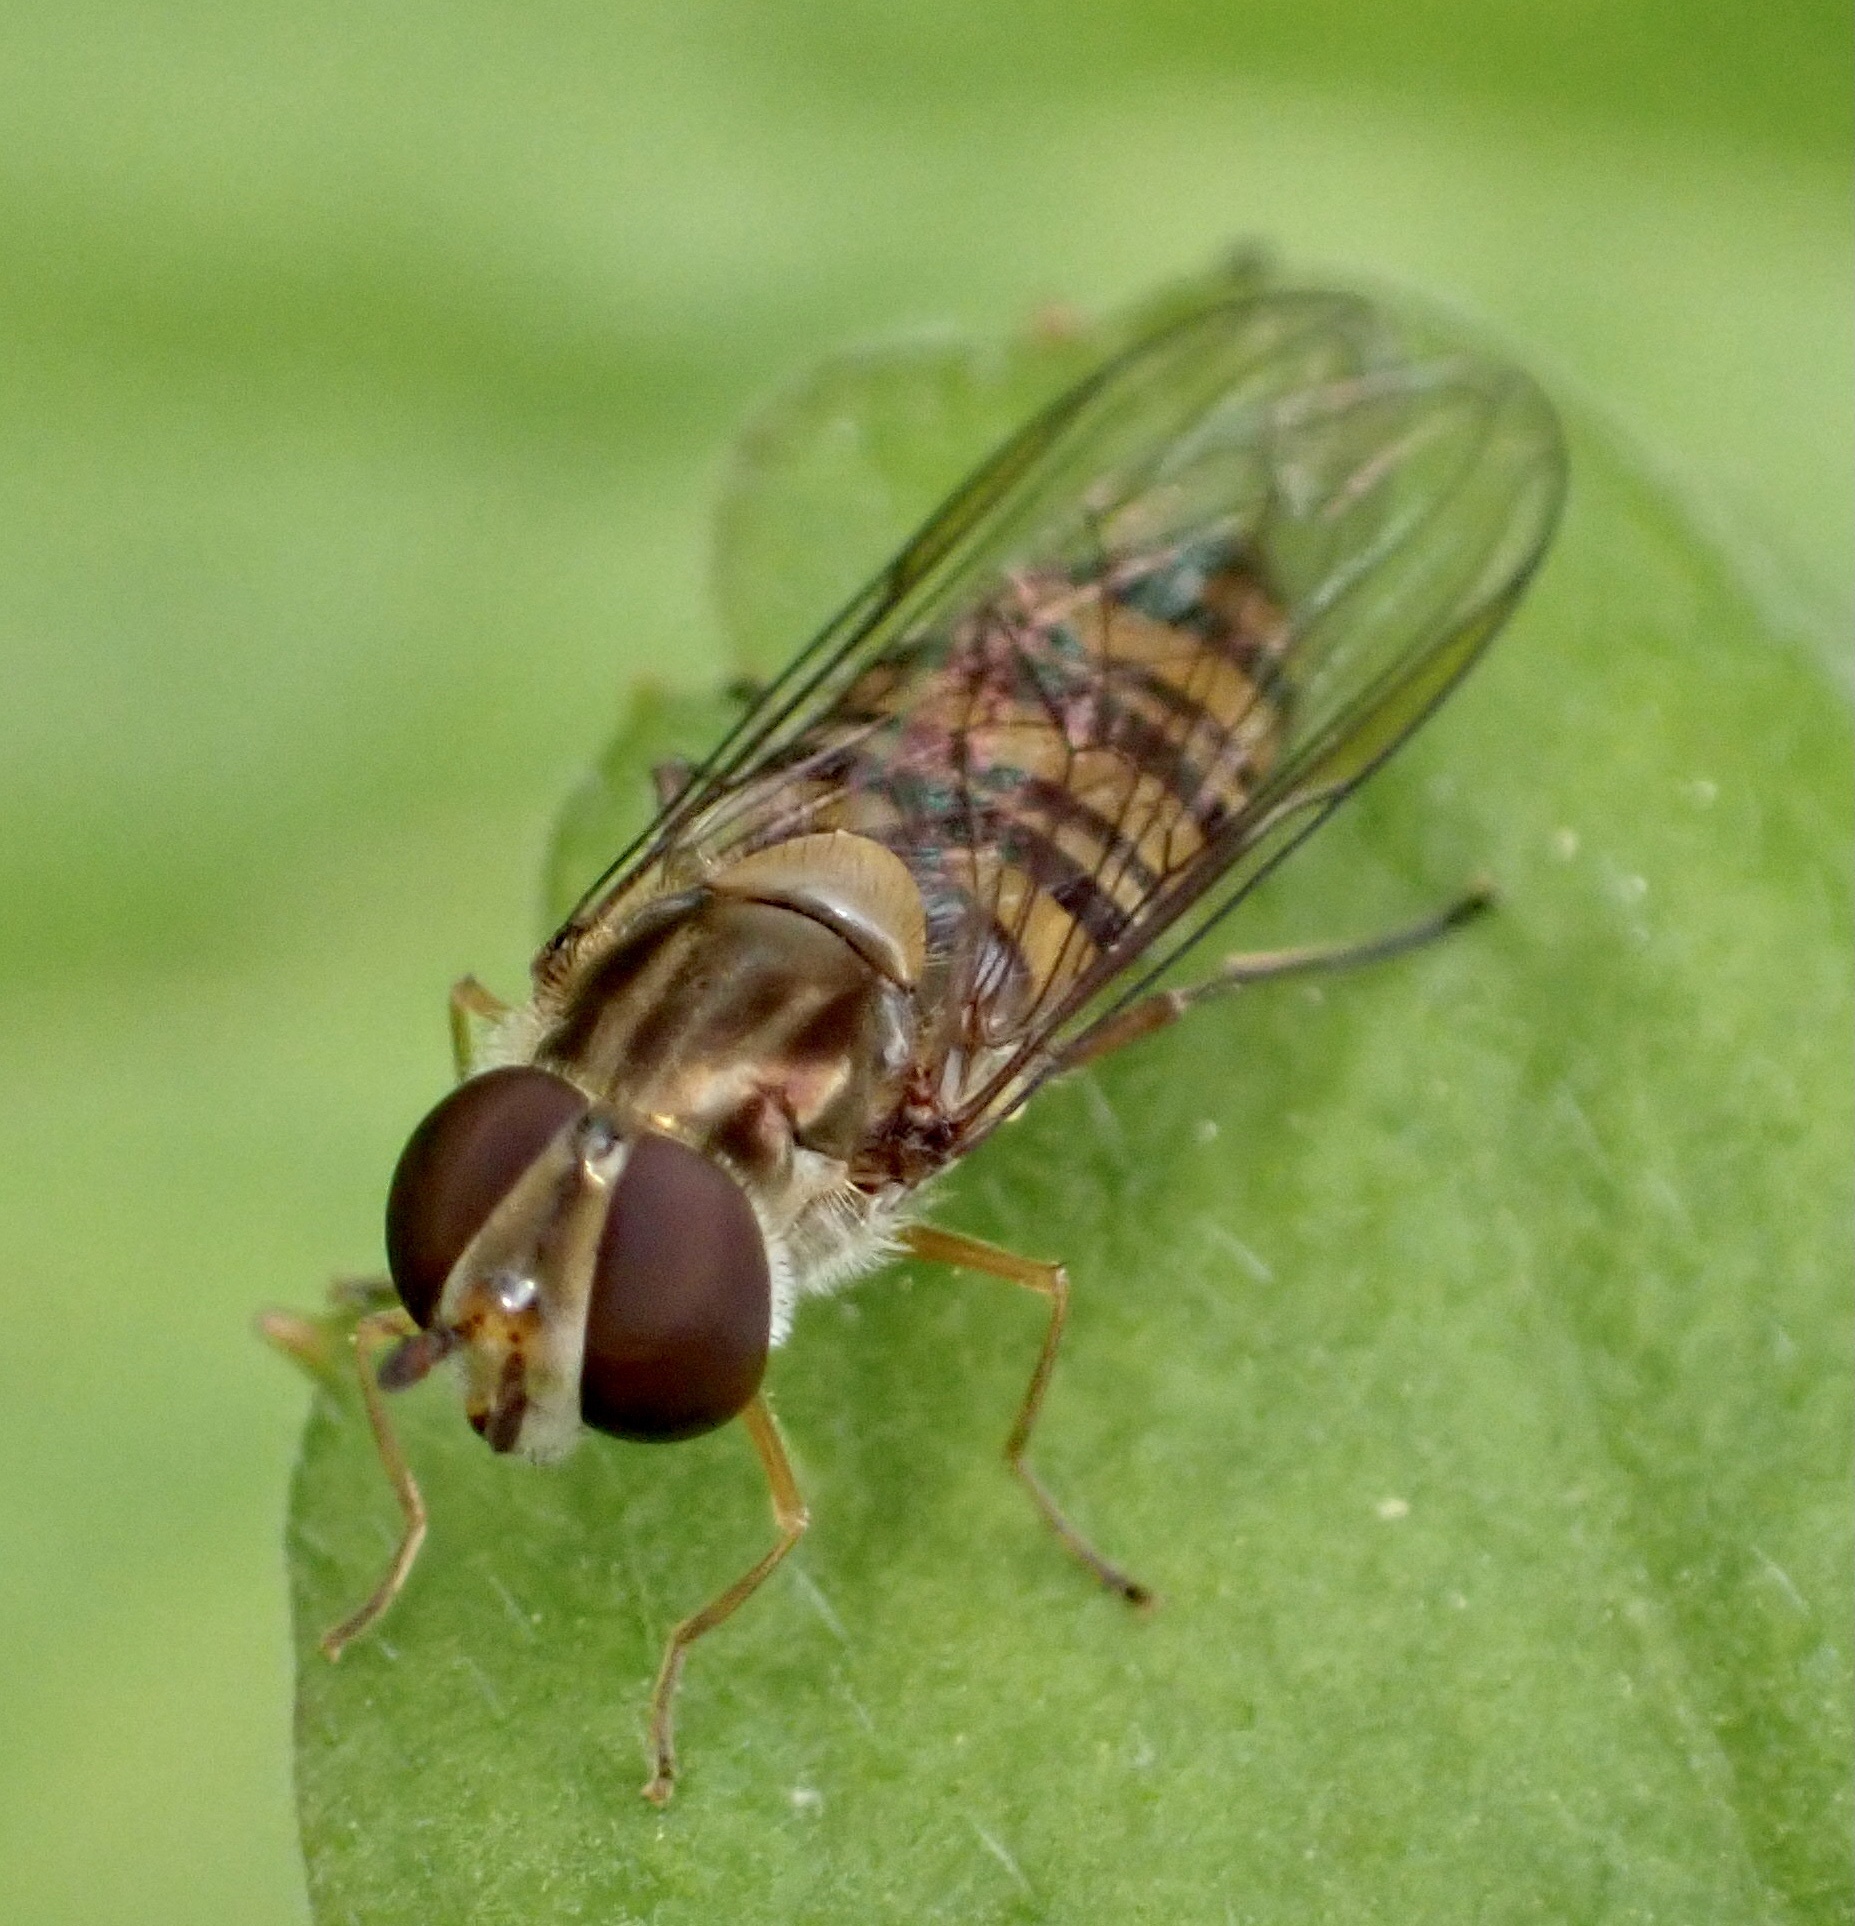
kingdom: Animalia
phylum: Arthropoda
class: Insecta
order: Diptera
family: Syrphidae
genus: Episyrphus
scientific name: Episyrphus balteatus
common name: Marmalade hoverfly
